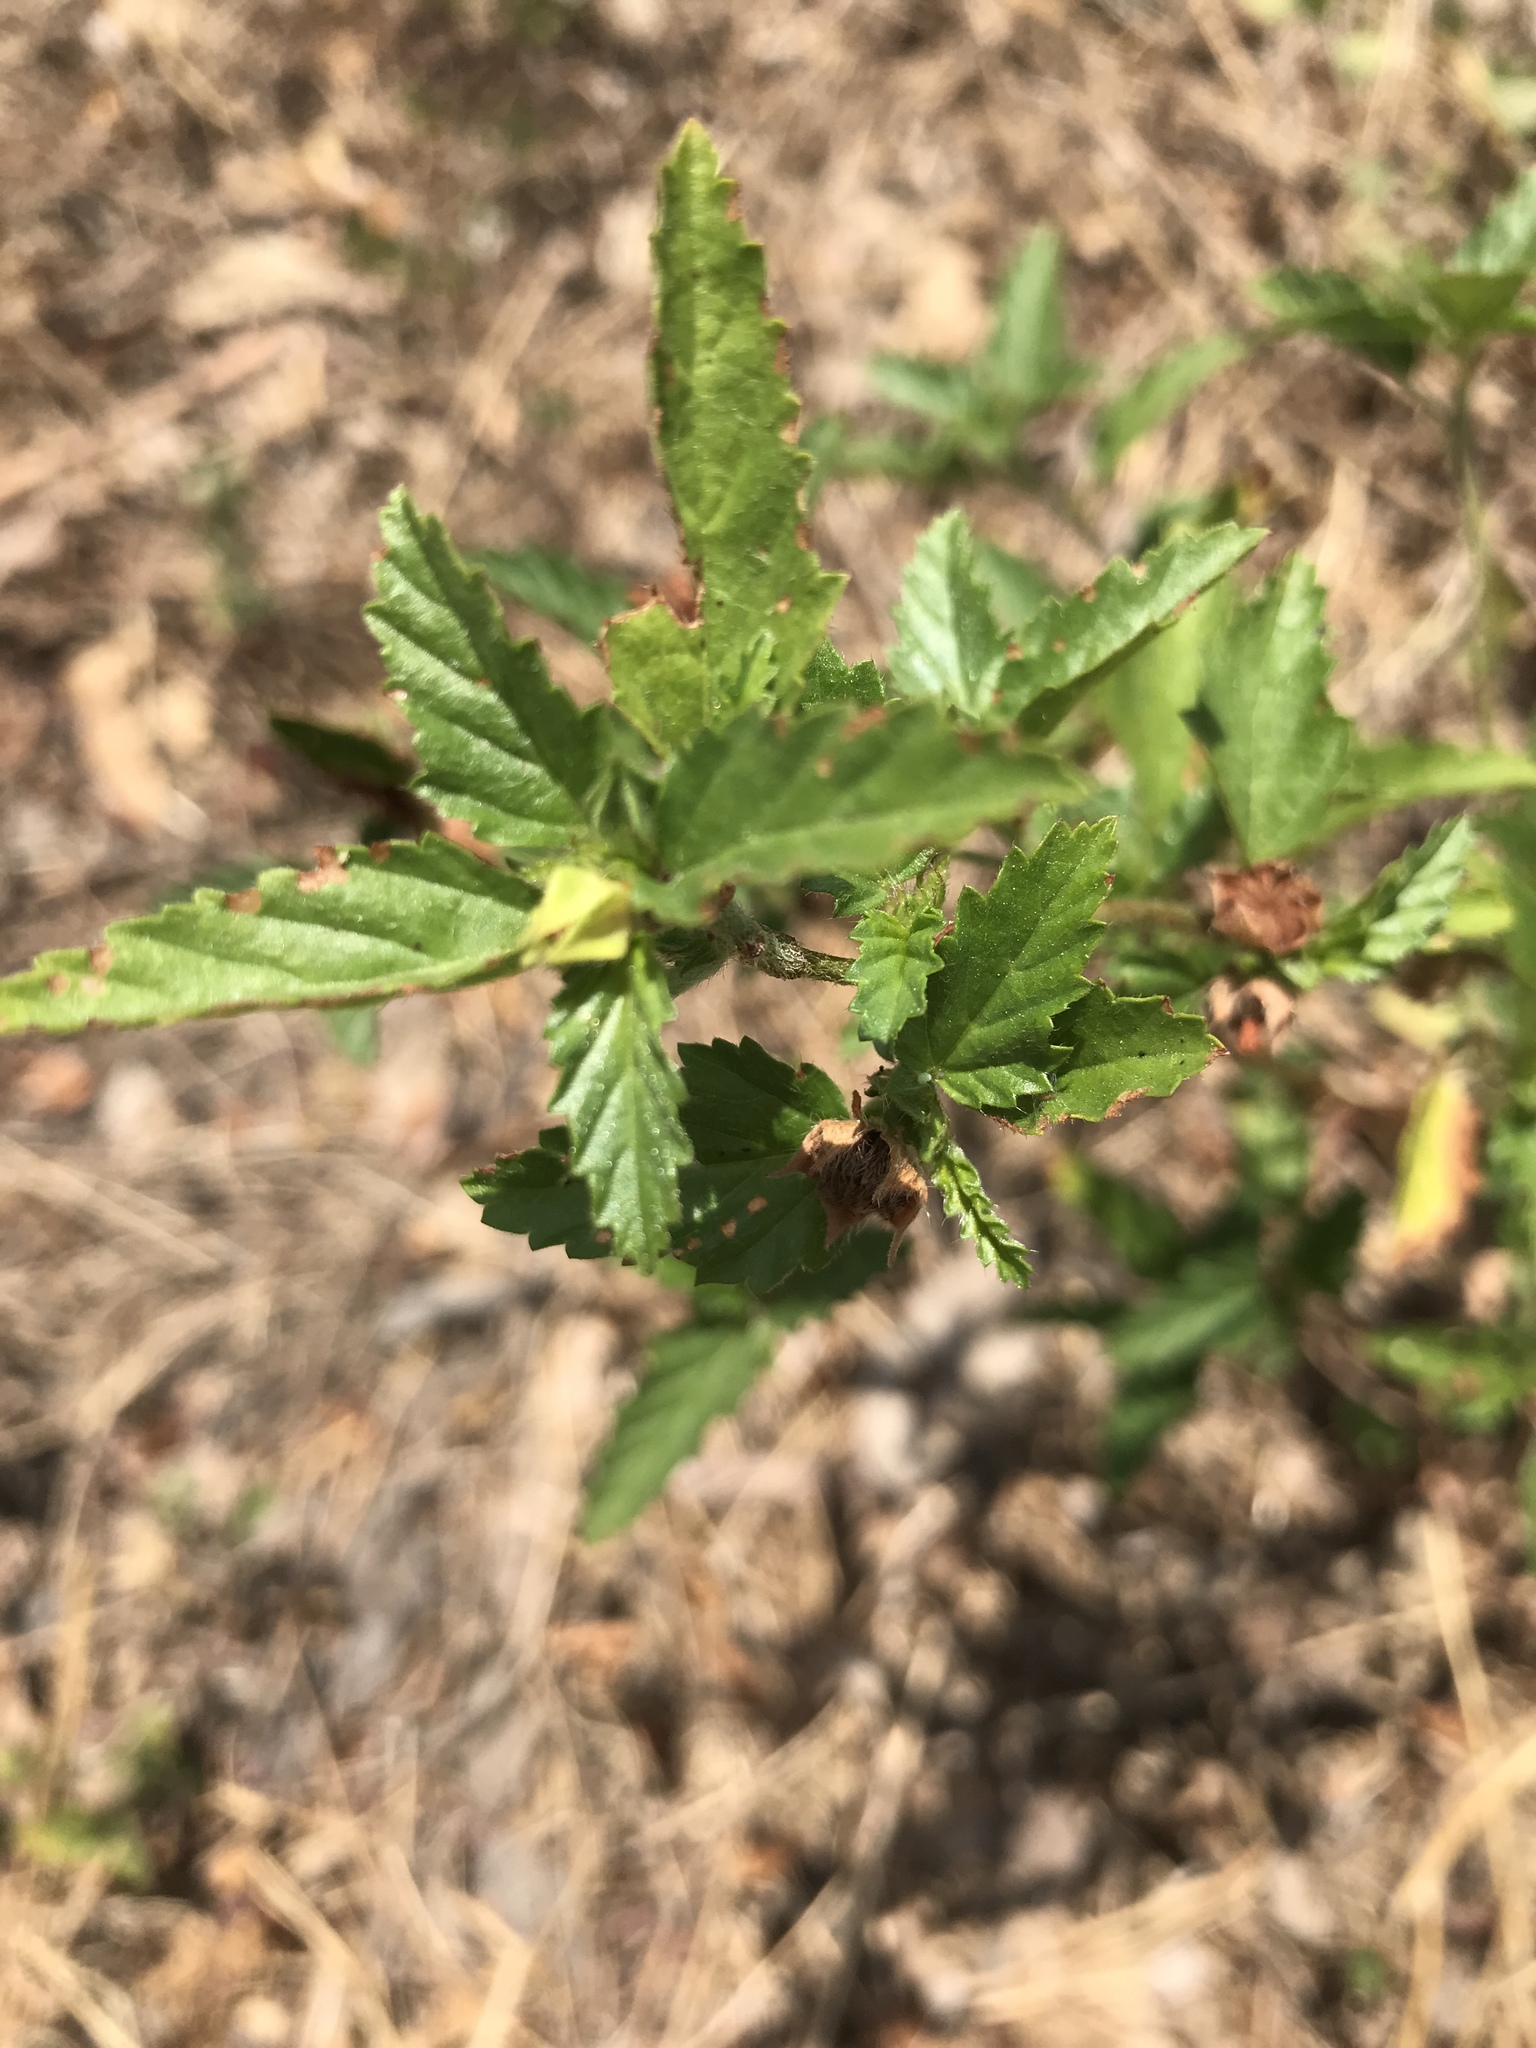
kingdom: Plantae
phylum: Tracheophyta
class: Magnoliopsida
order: Malvales
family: Malvaceae
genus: Malvastrum
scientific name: Malvastrum coromandelianum
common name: Threelobe false mallow
